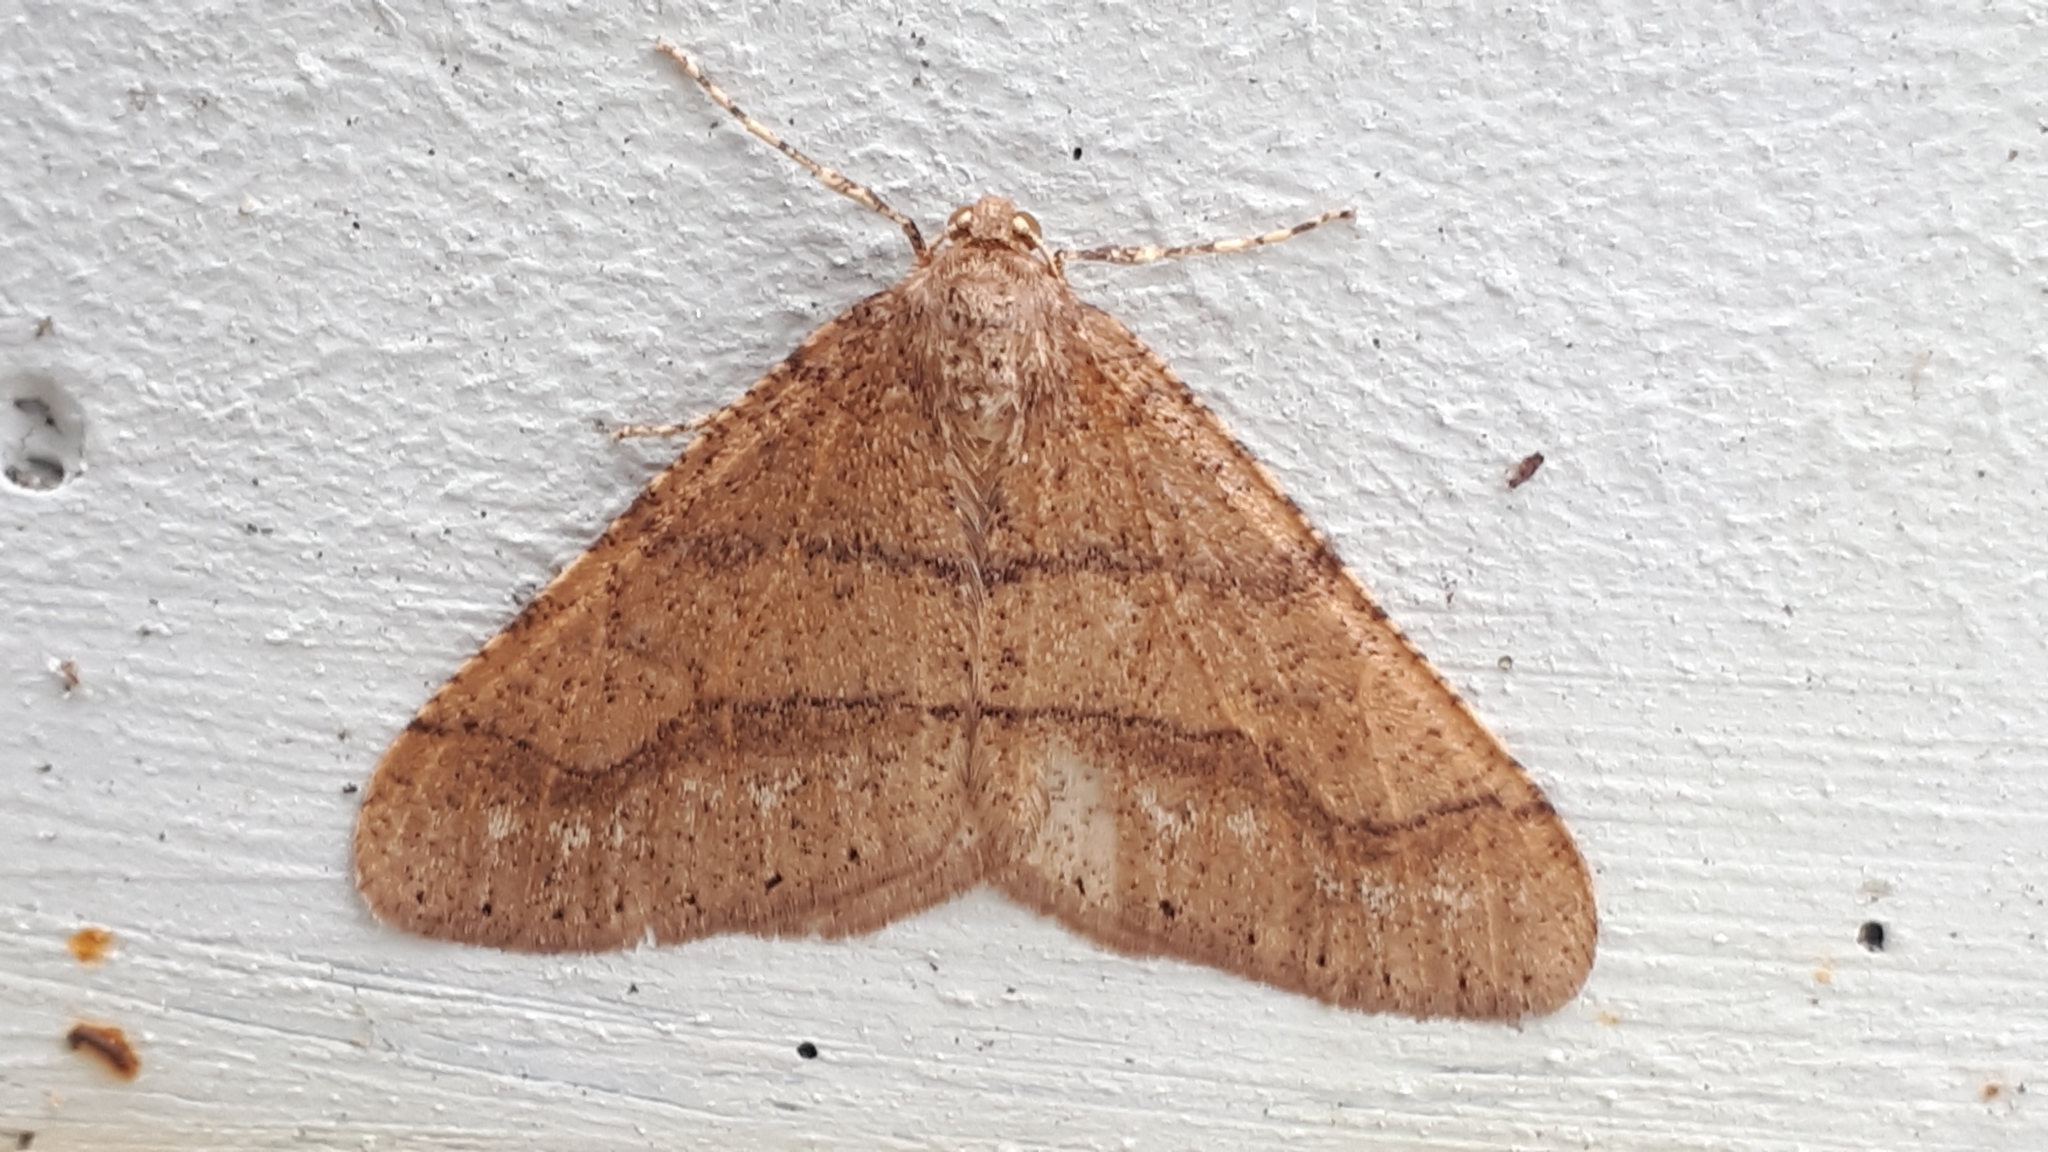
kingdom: Animalia
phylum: Arthropoda
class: Insecta
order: Lepidoptera
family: Geometridae
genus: Agriopis
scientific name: Agriopis marginaria
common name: Dotted border
